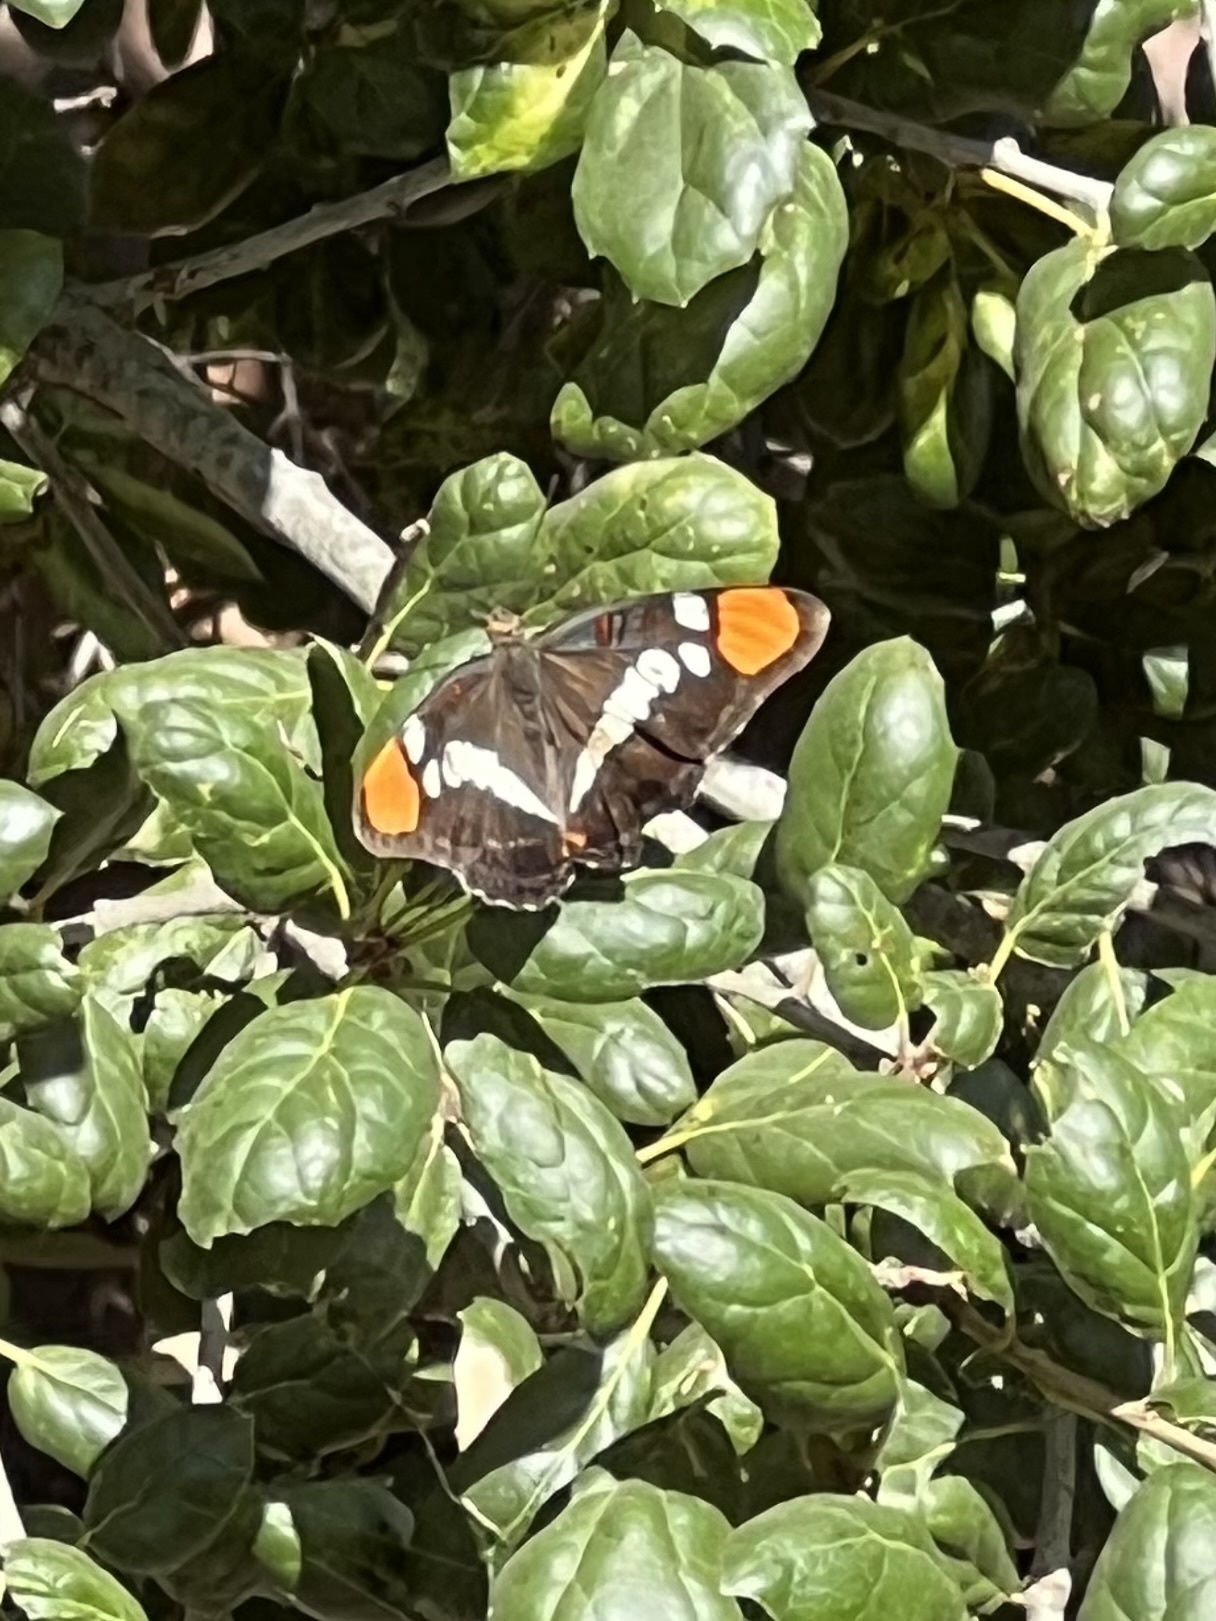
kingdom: Animalia
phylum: Arthropoda
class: Insecta
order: Lepidoptera
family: Nymphalidae
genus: Limenitis
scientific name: Limenitis bredowii
